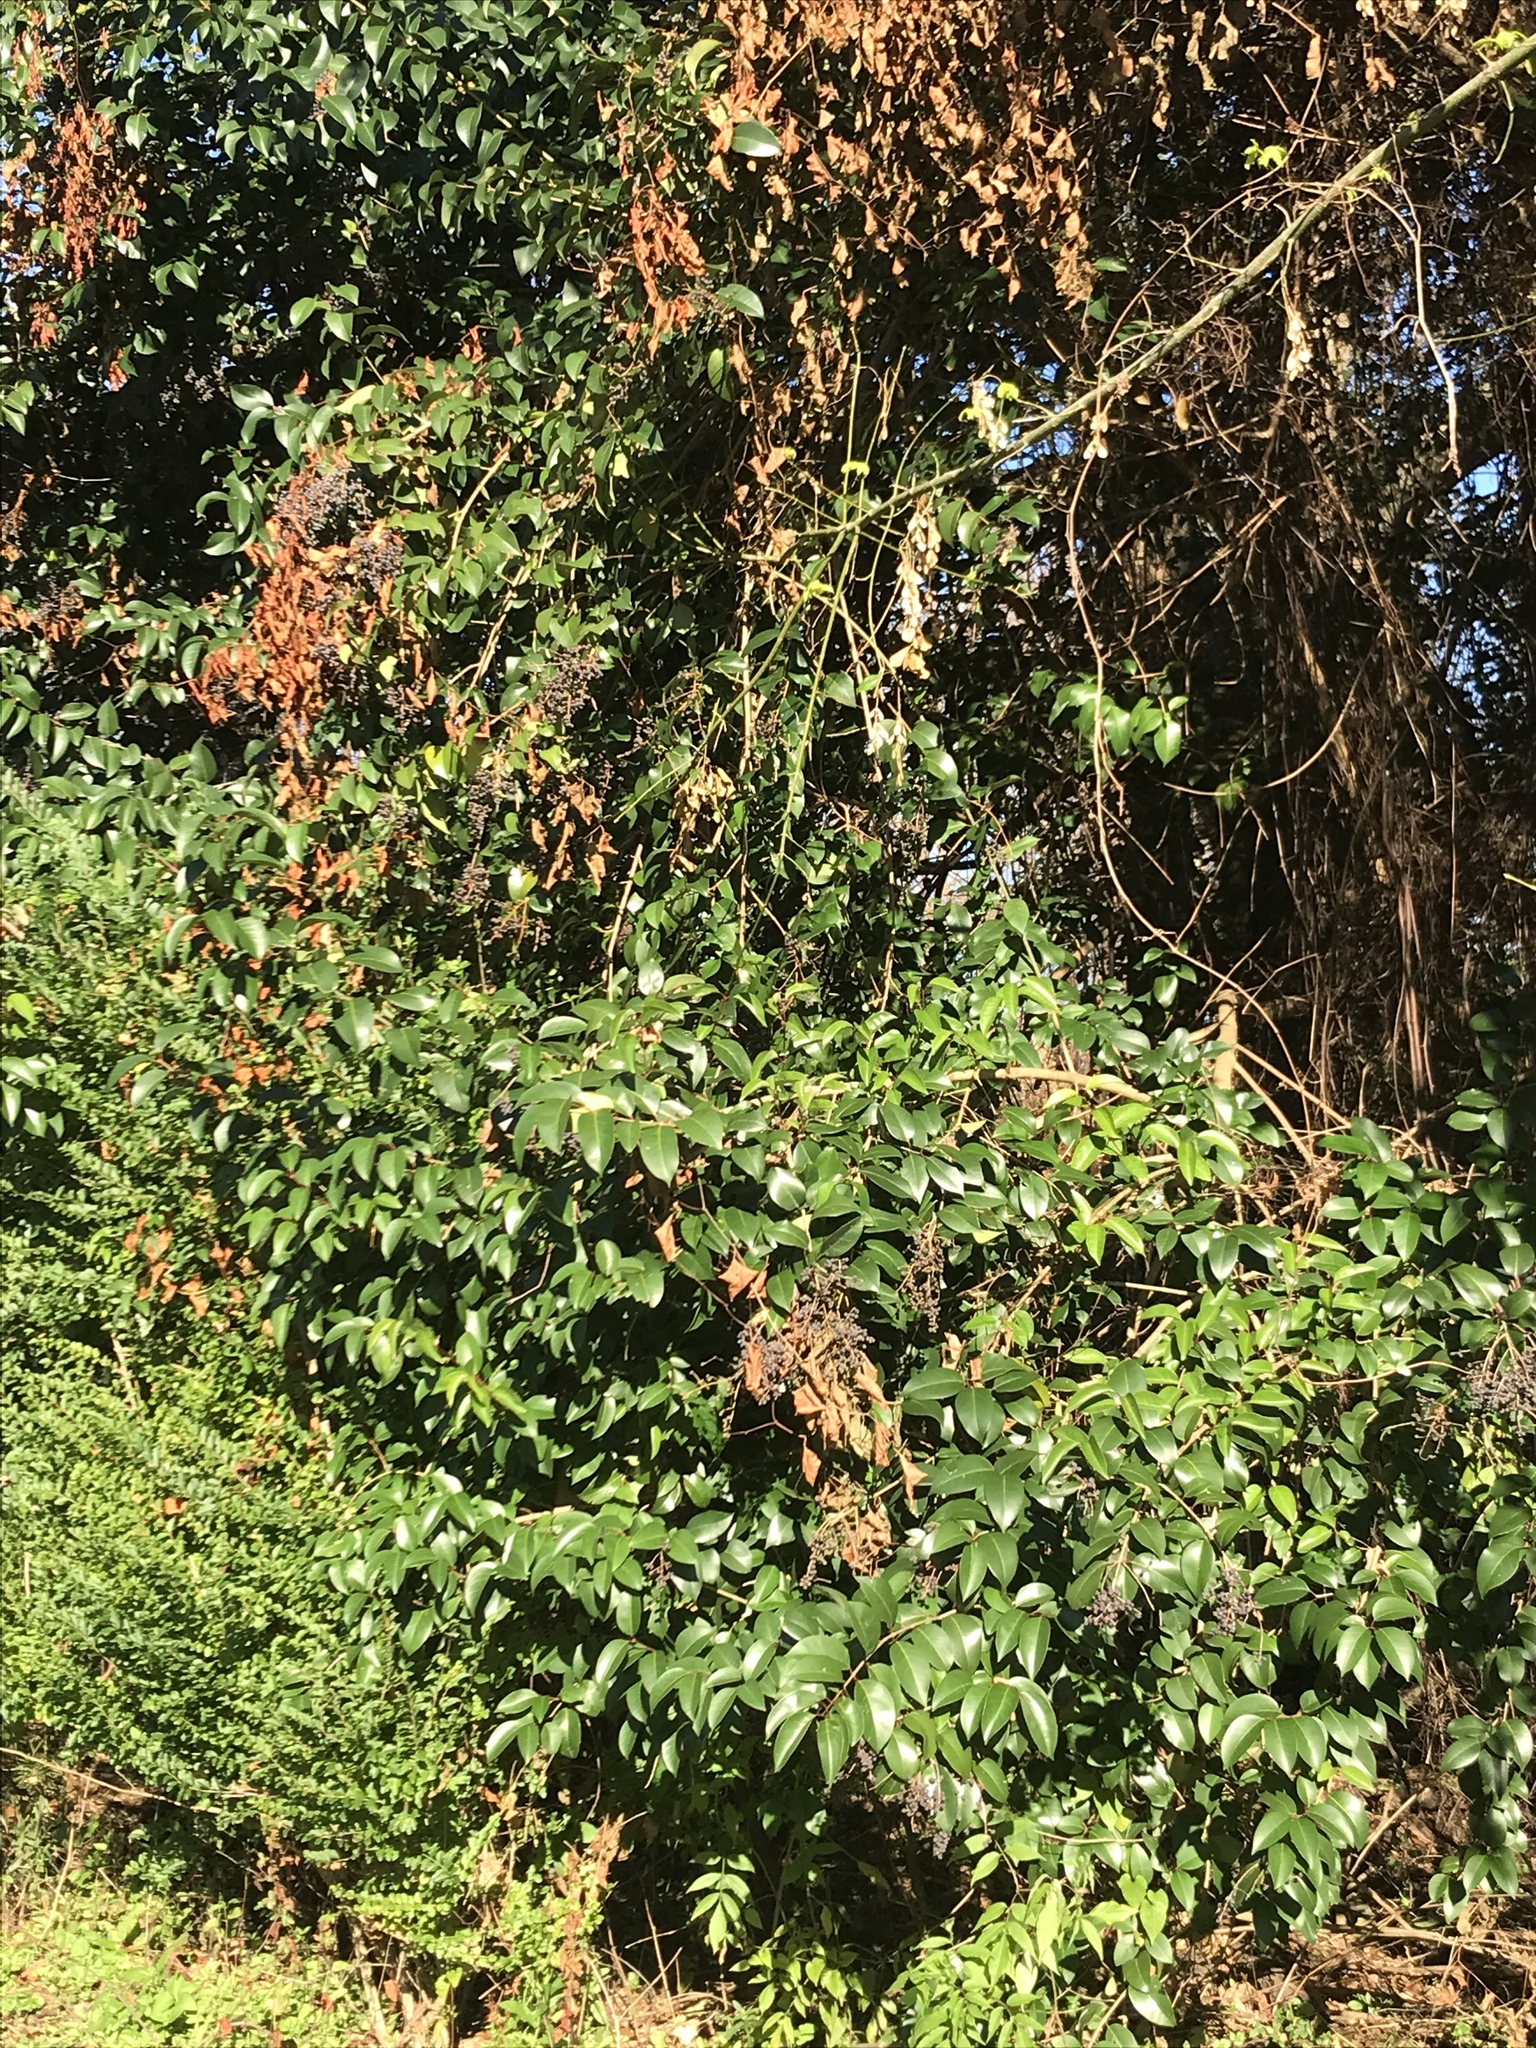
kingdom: Plantae
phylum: Tracheophyta
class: Magnoliopsida
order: Lamiales
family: Oleaceae
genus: Ligustrum
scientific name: Ligustrum lucidum
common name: Glossy privet
